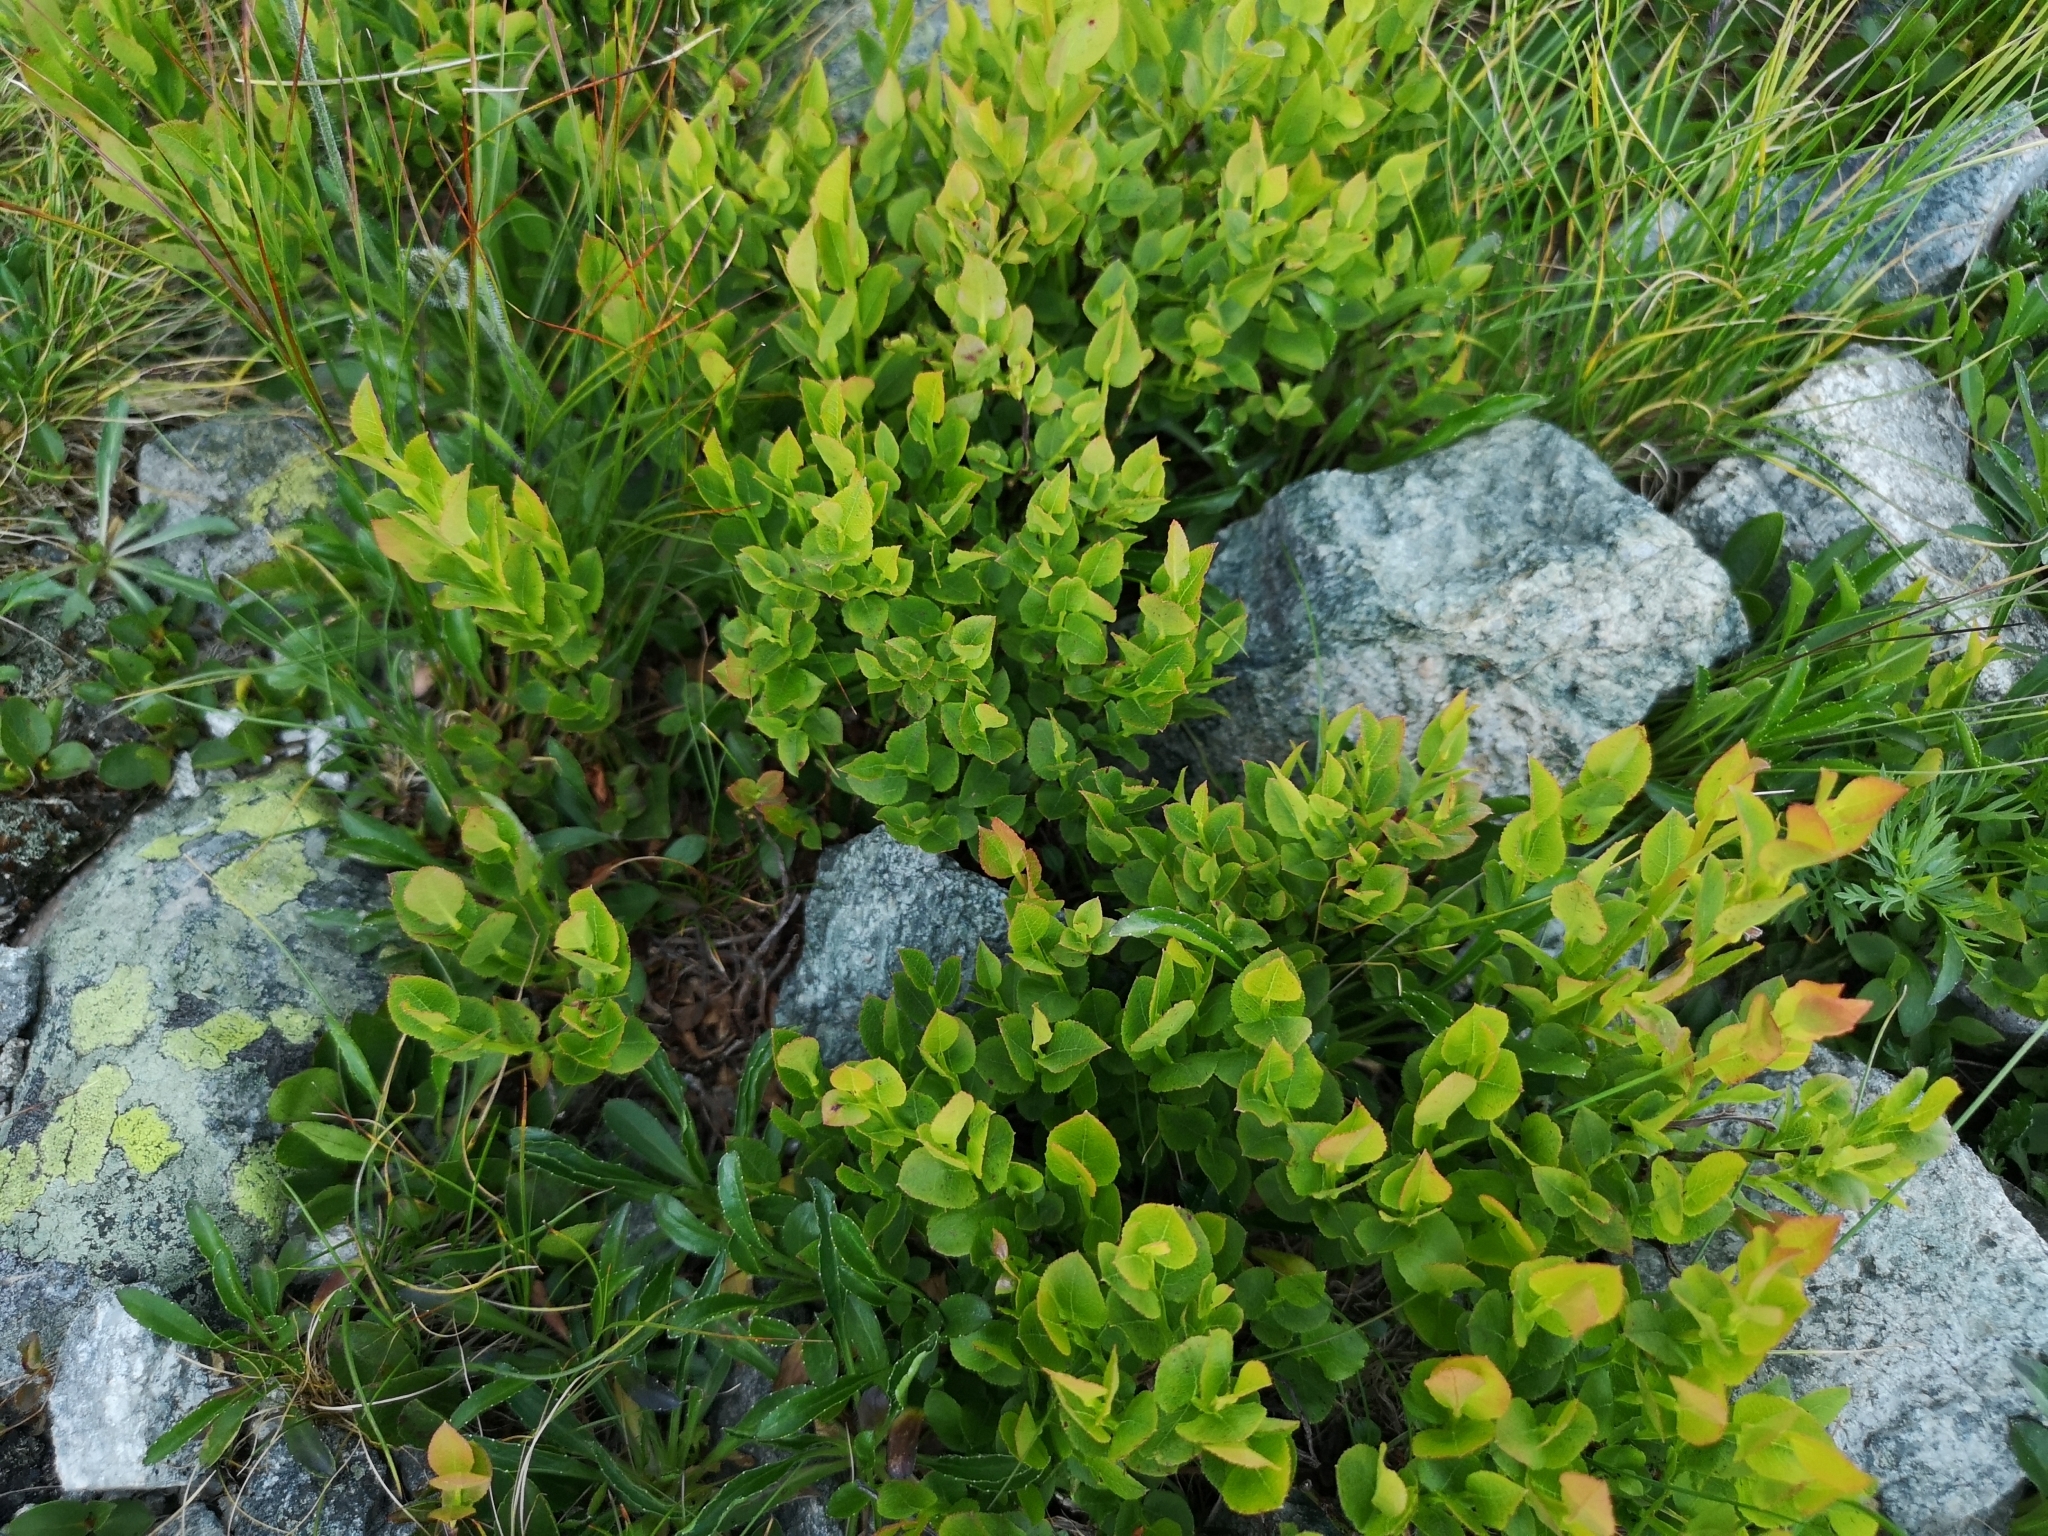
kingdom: Plantae
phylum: Tracheophyta
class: Magnoliopsida
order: Ericales
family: Ericaceae
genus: Vaccinium
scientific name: Vaccinium myrtillus
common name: Bilberry
